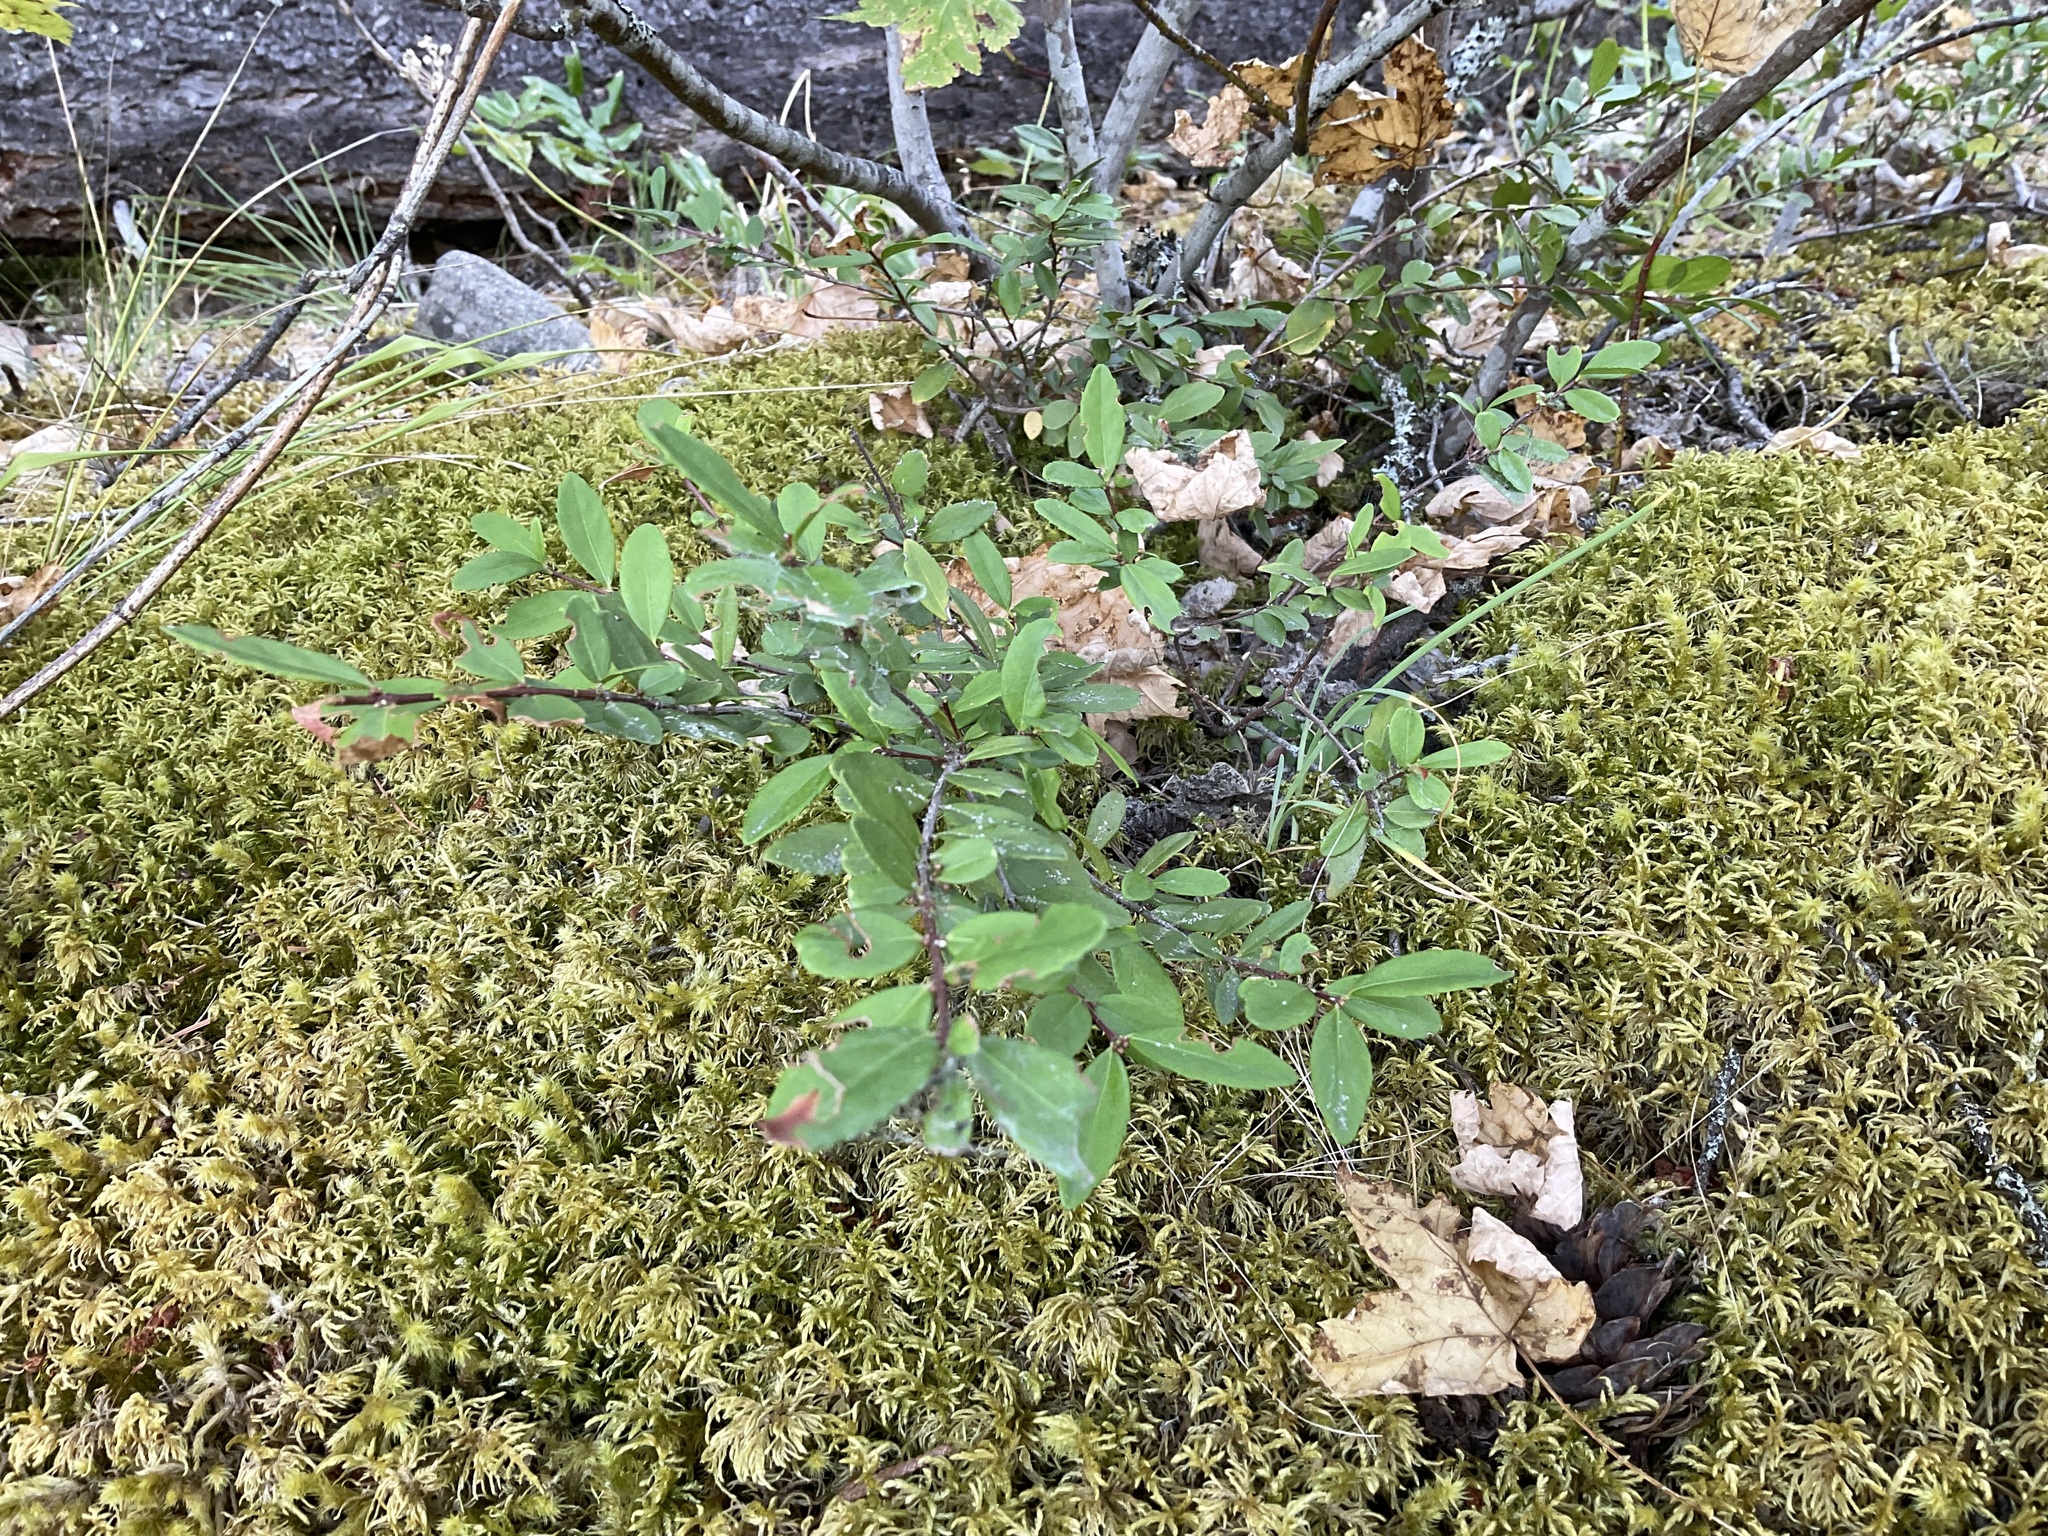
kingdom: Plantae
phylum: Tracheophyta
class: Magnoliopsida
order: Celastrales
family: Celastraceae
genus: Paxistima
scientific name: Paxistima myrsinites
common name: Mountain-lover
